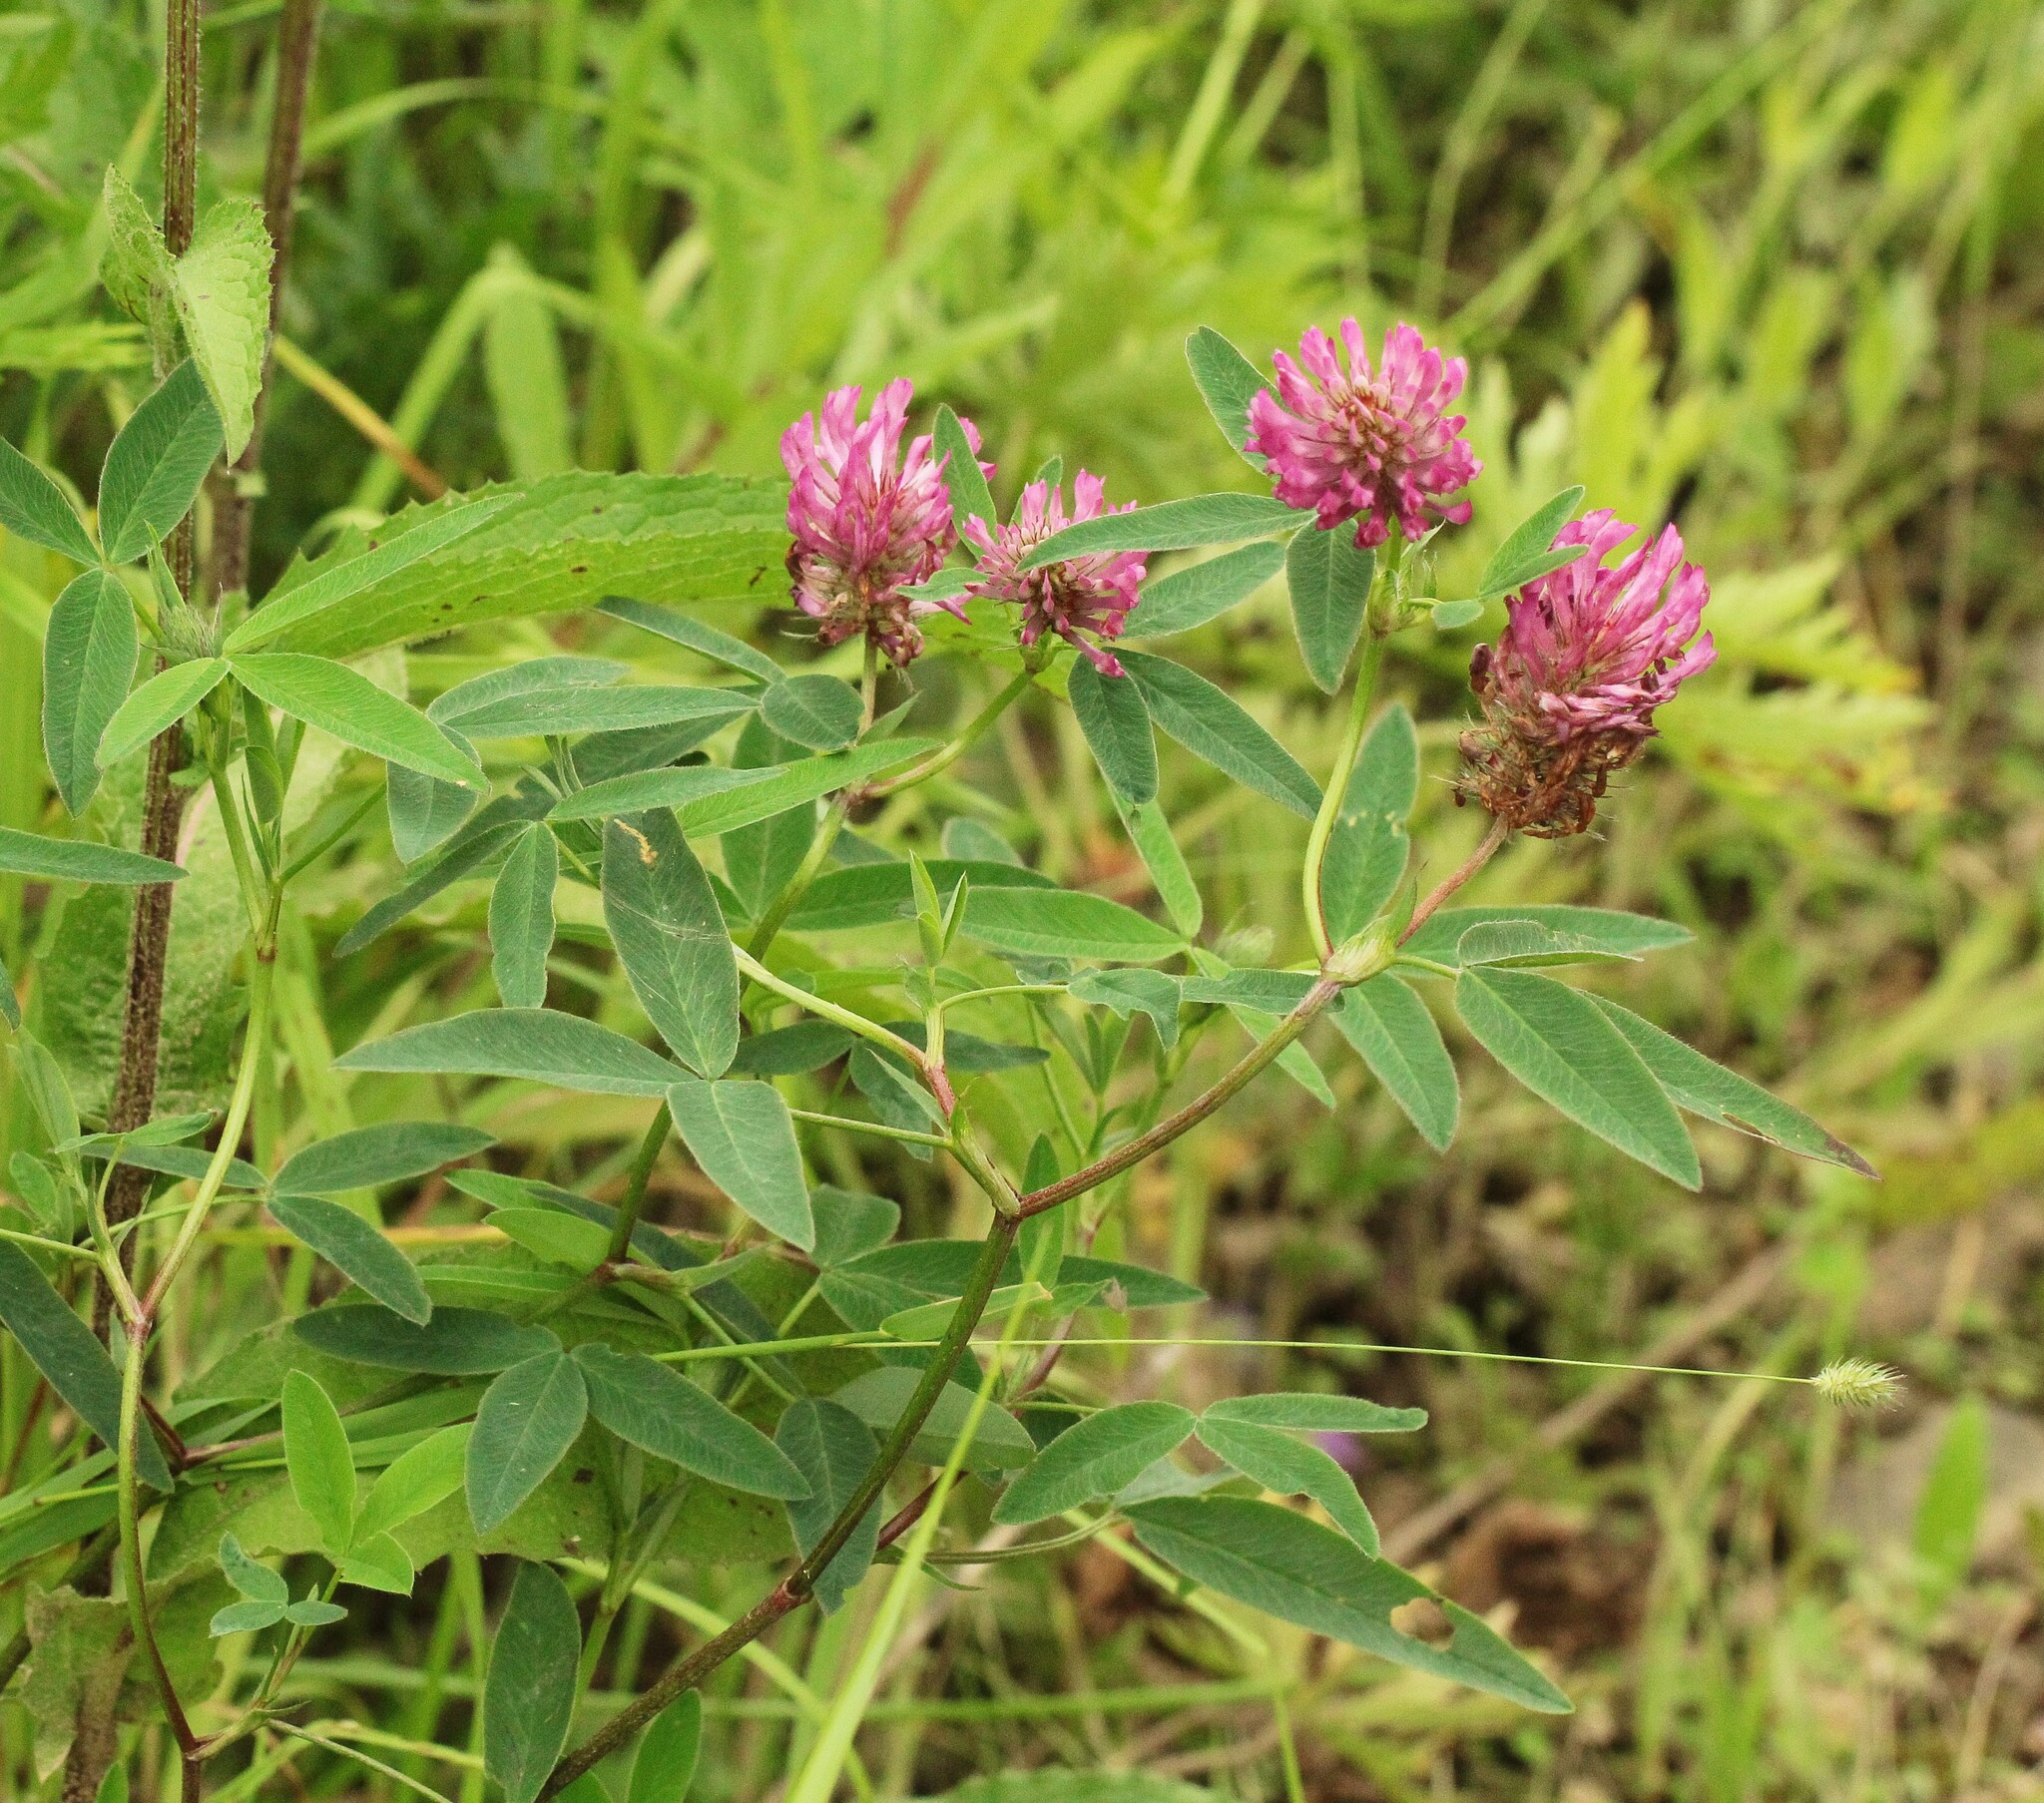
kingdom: Plantae
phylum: Tracheophyta
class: Magnoliopsida
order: Fabales
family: Fabaceae
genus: Trifolium
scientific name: Trifolium medium
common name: Zigzag clover
